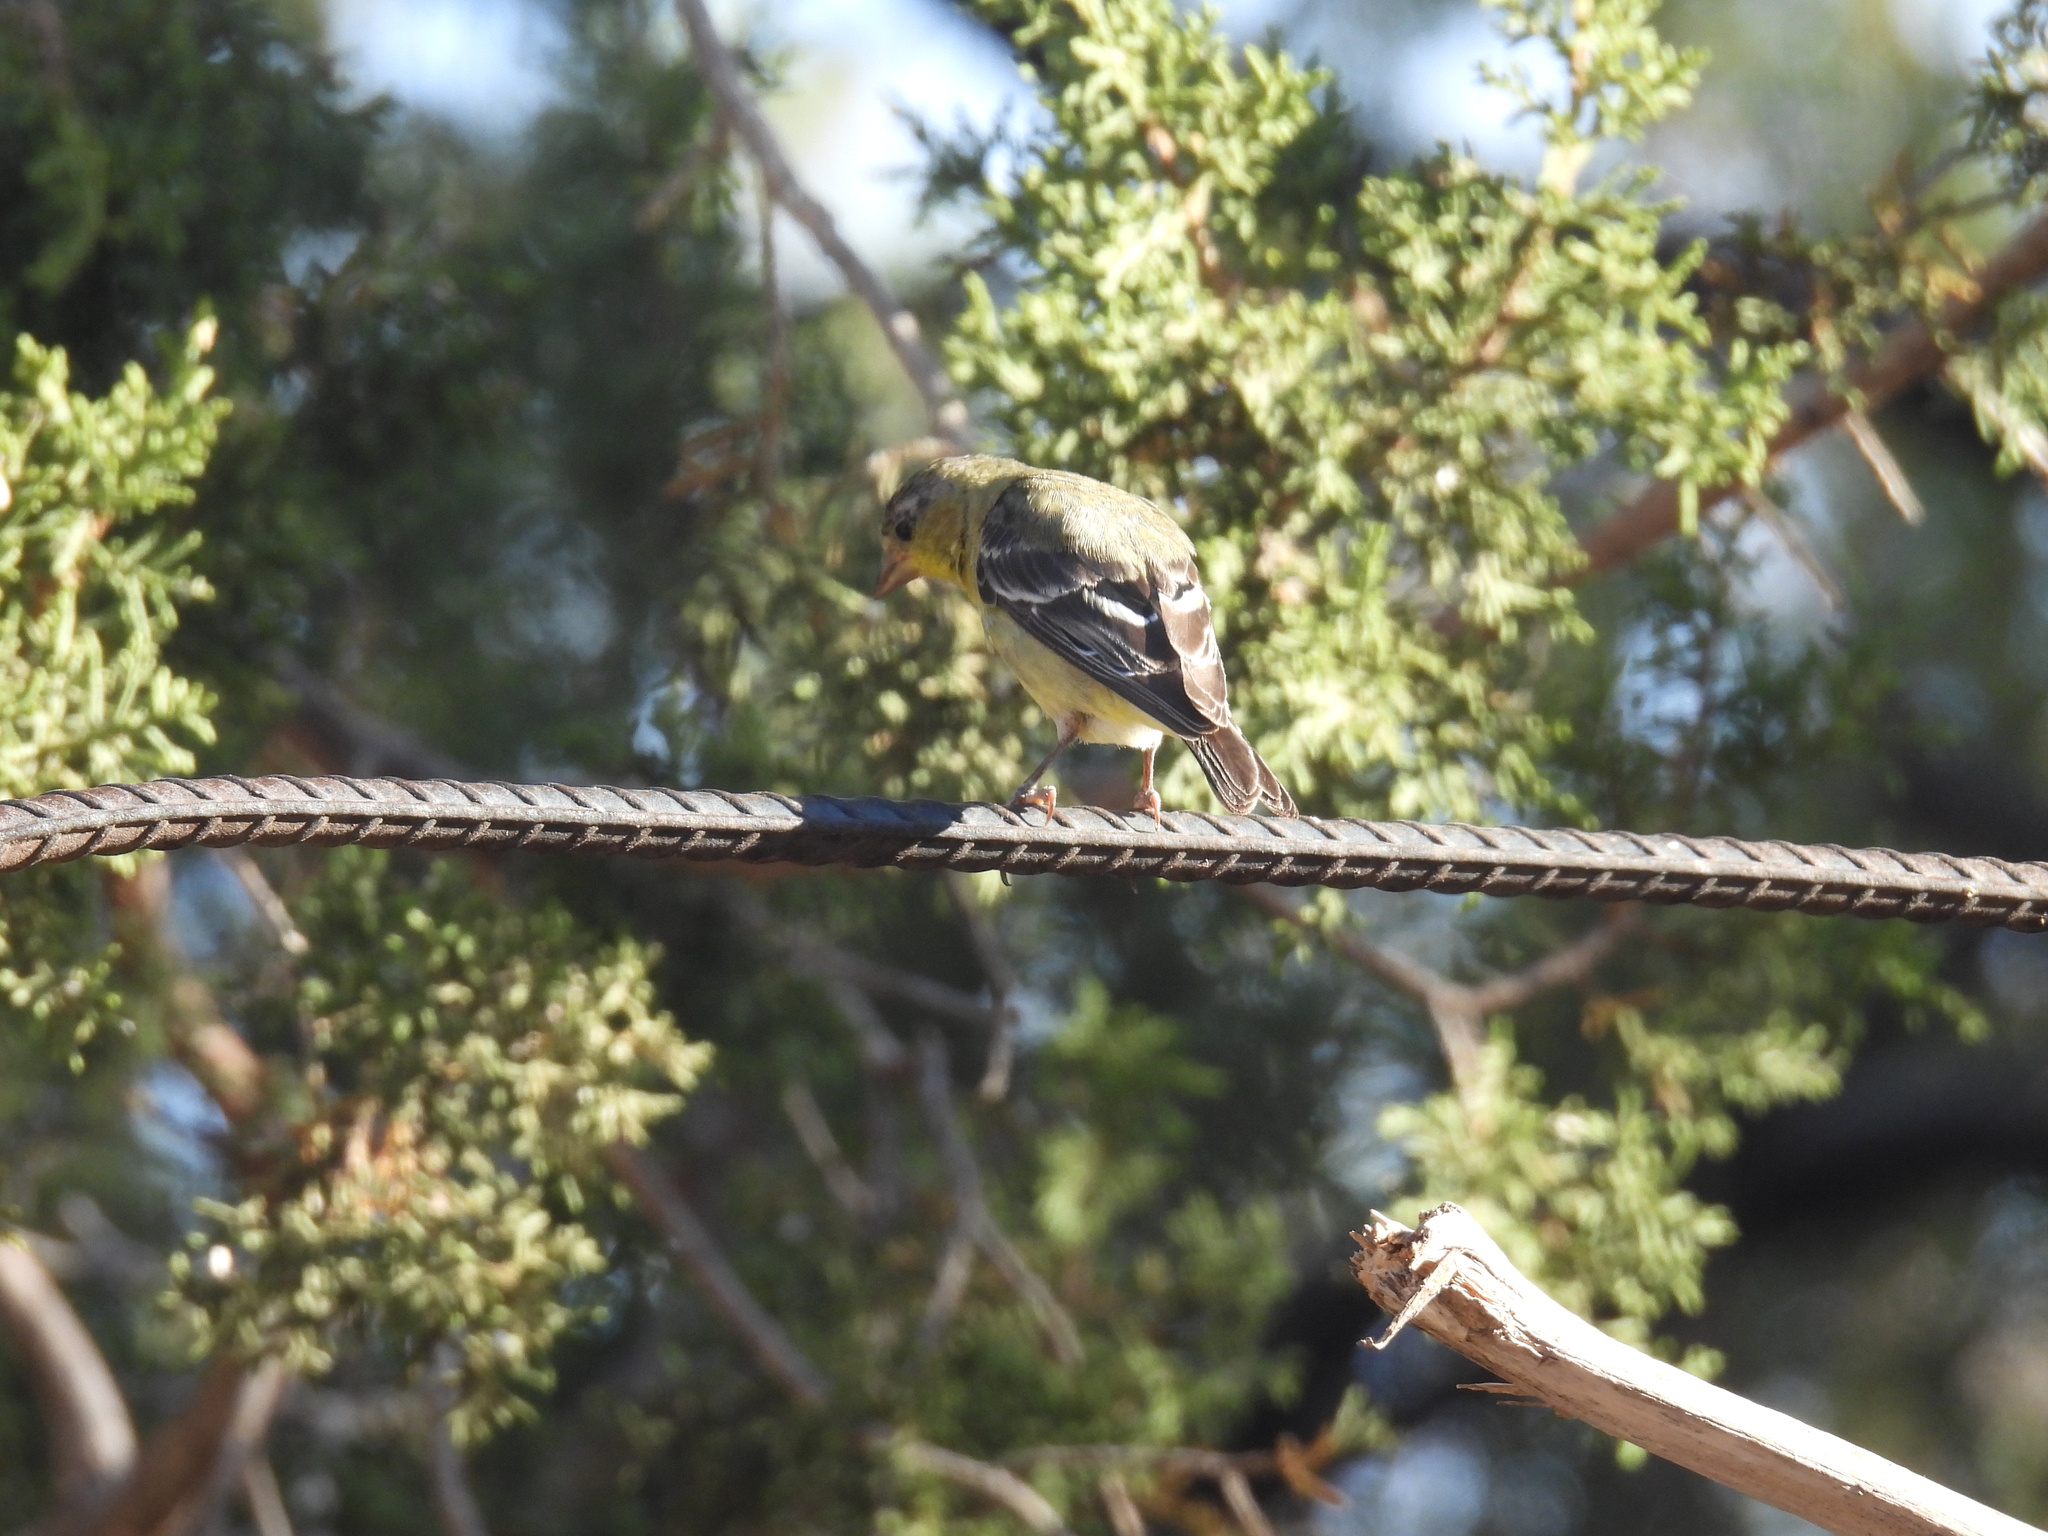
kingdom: Animalia
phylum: Chordata
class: Aves
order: Passeriformes
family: Fringillidae
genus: Spinus
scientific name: Spinus tristis
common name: American goldfinch
